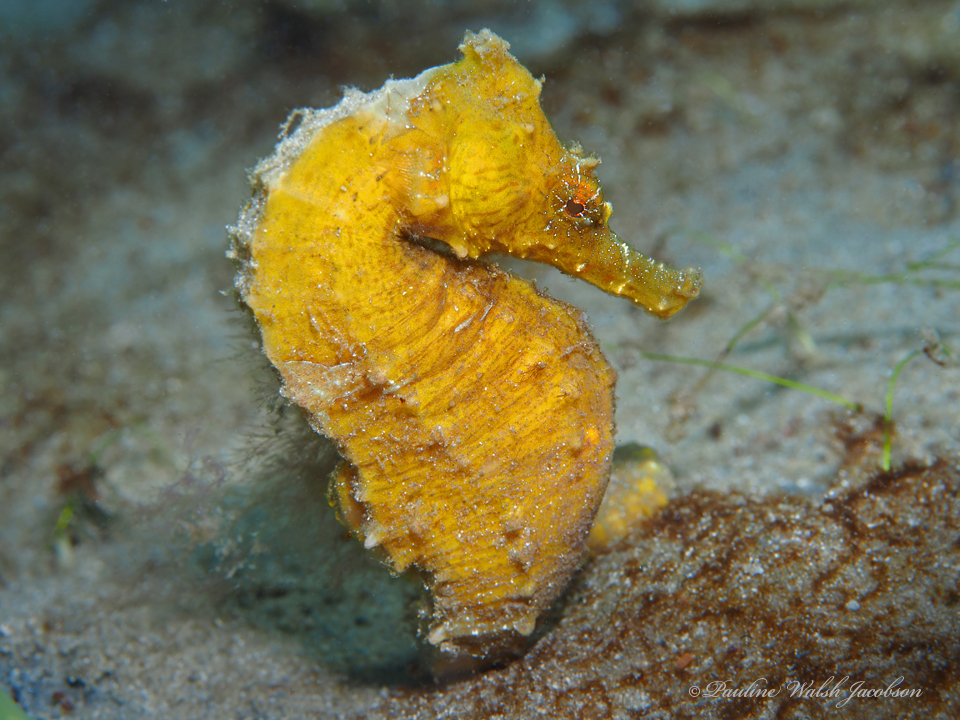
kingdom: Animalia
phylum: Chordata
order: Syngnathiformes
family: Syngnathidae
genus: Hippocampus
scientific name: Hippocampus erectus
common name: Lined seahorse
